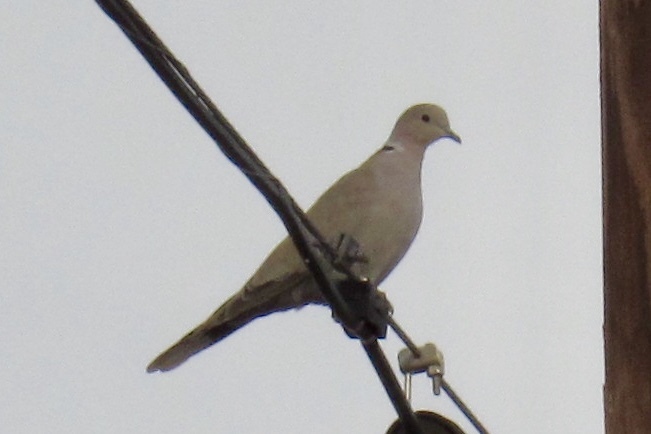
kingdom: Animalia
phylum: Chordata
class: Aves
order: Columbiformes
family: Columbidae
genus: Streptopelia
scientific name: Streptopelia decaocto
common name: Eurasian collared dove
